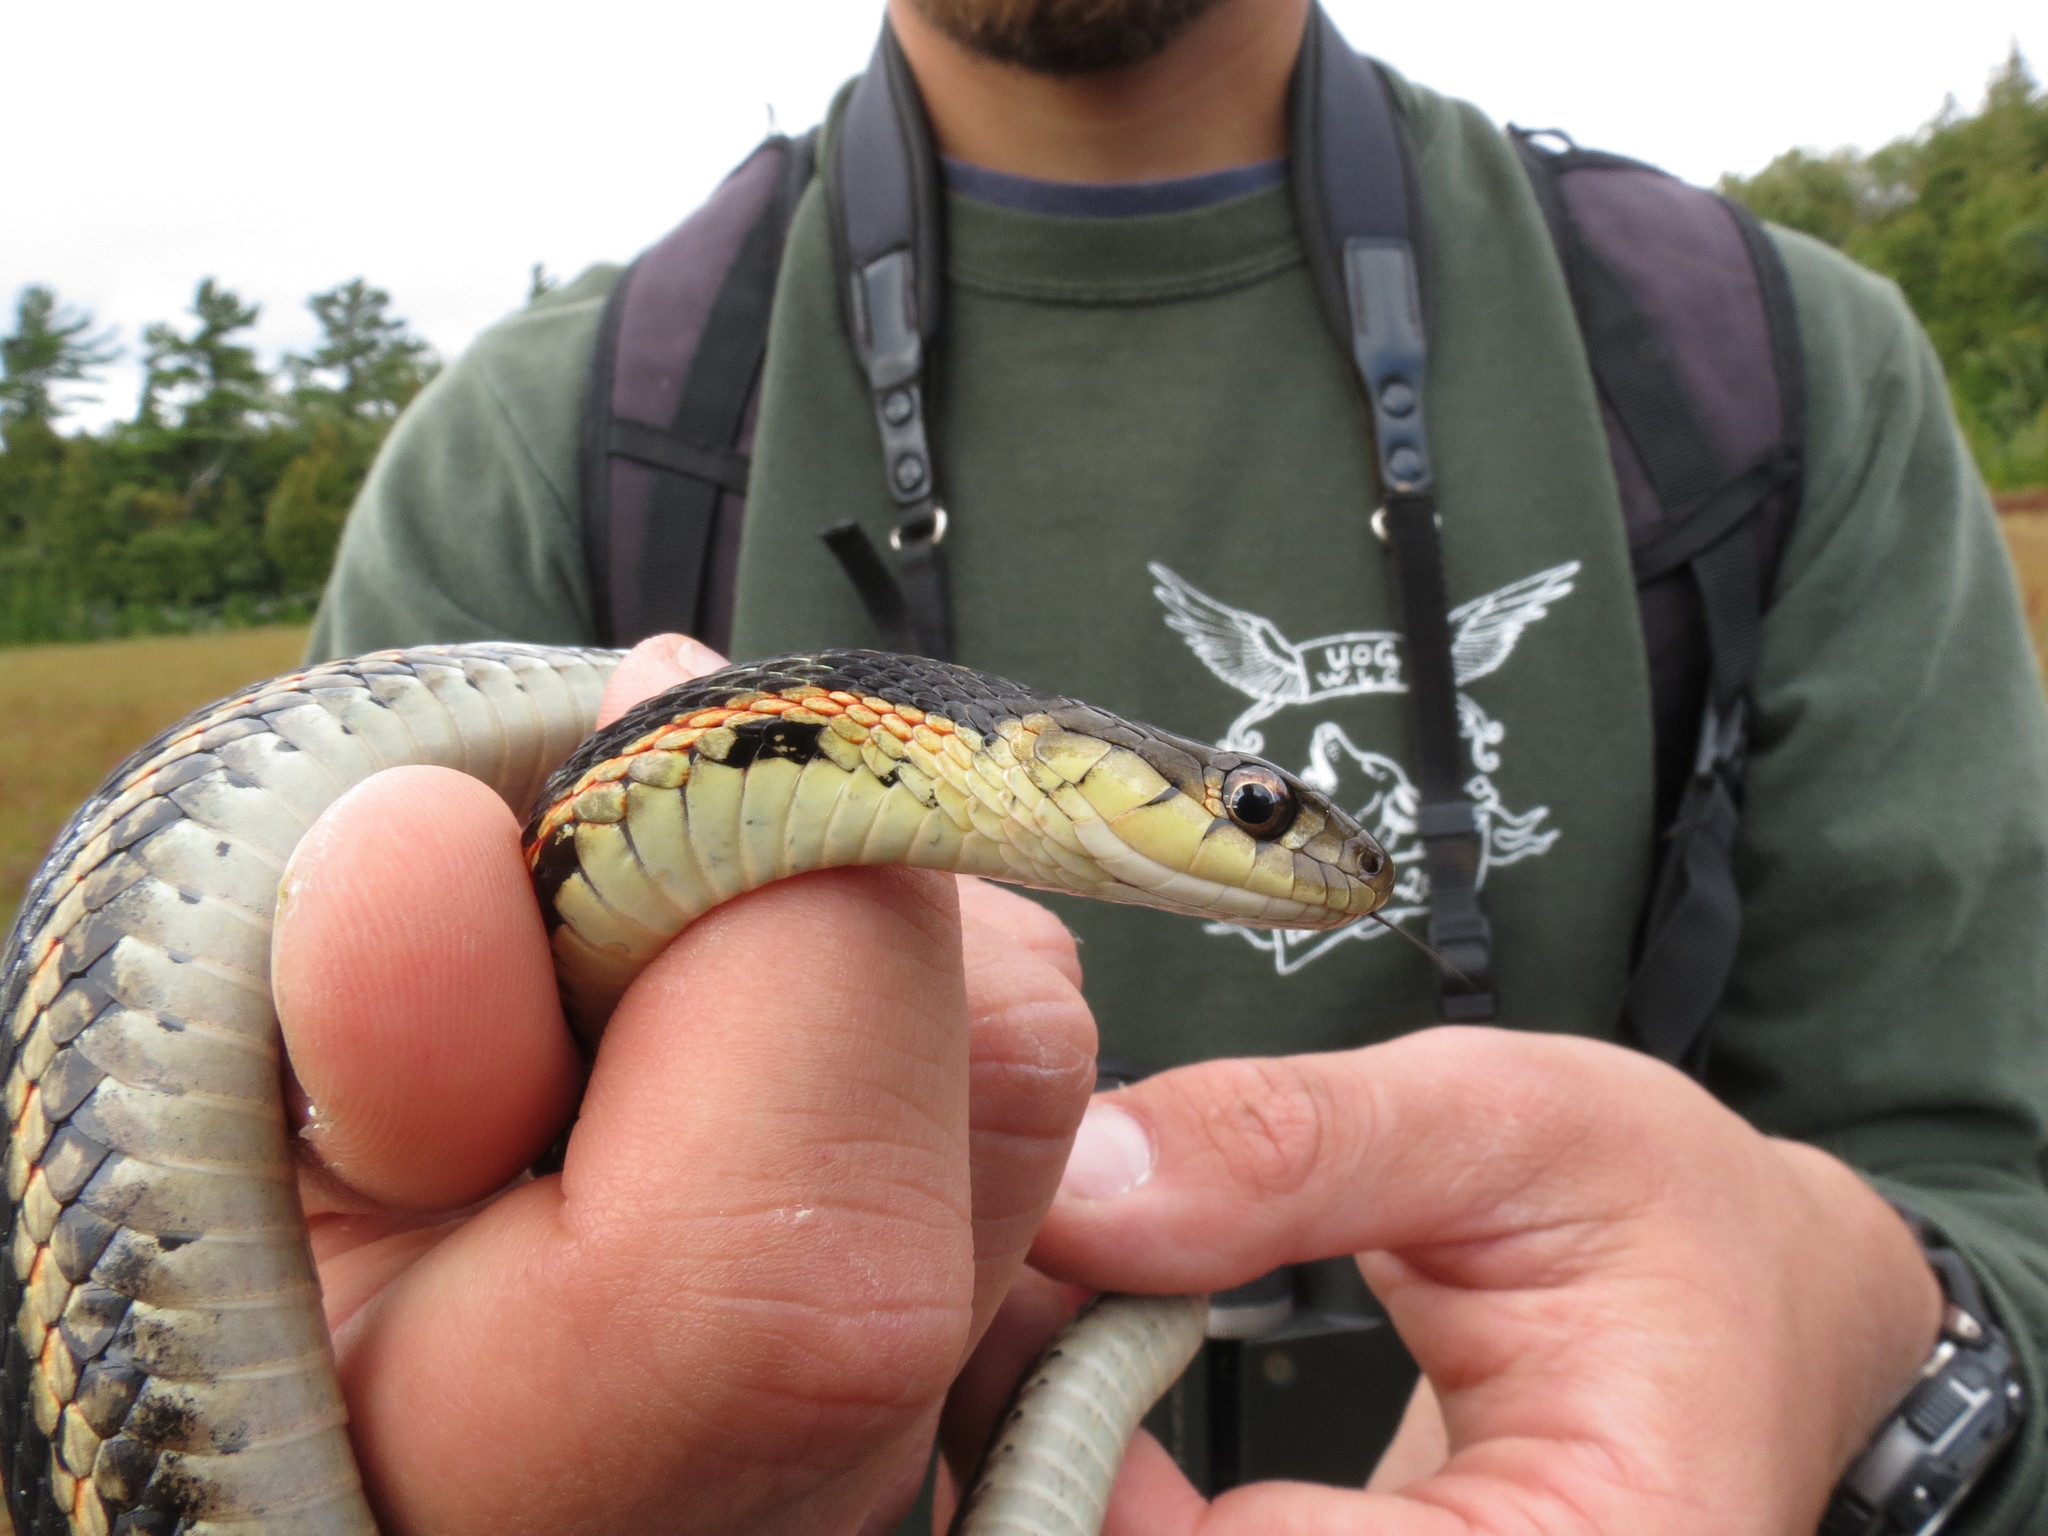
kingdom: Animalia
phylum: Chordata
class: Squamata
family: Colubridae
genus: Thamnophis
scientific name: Thamnophis sirtalis
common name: Common garter snake
